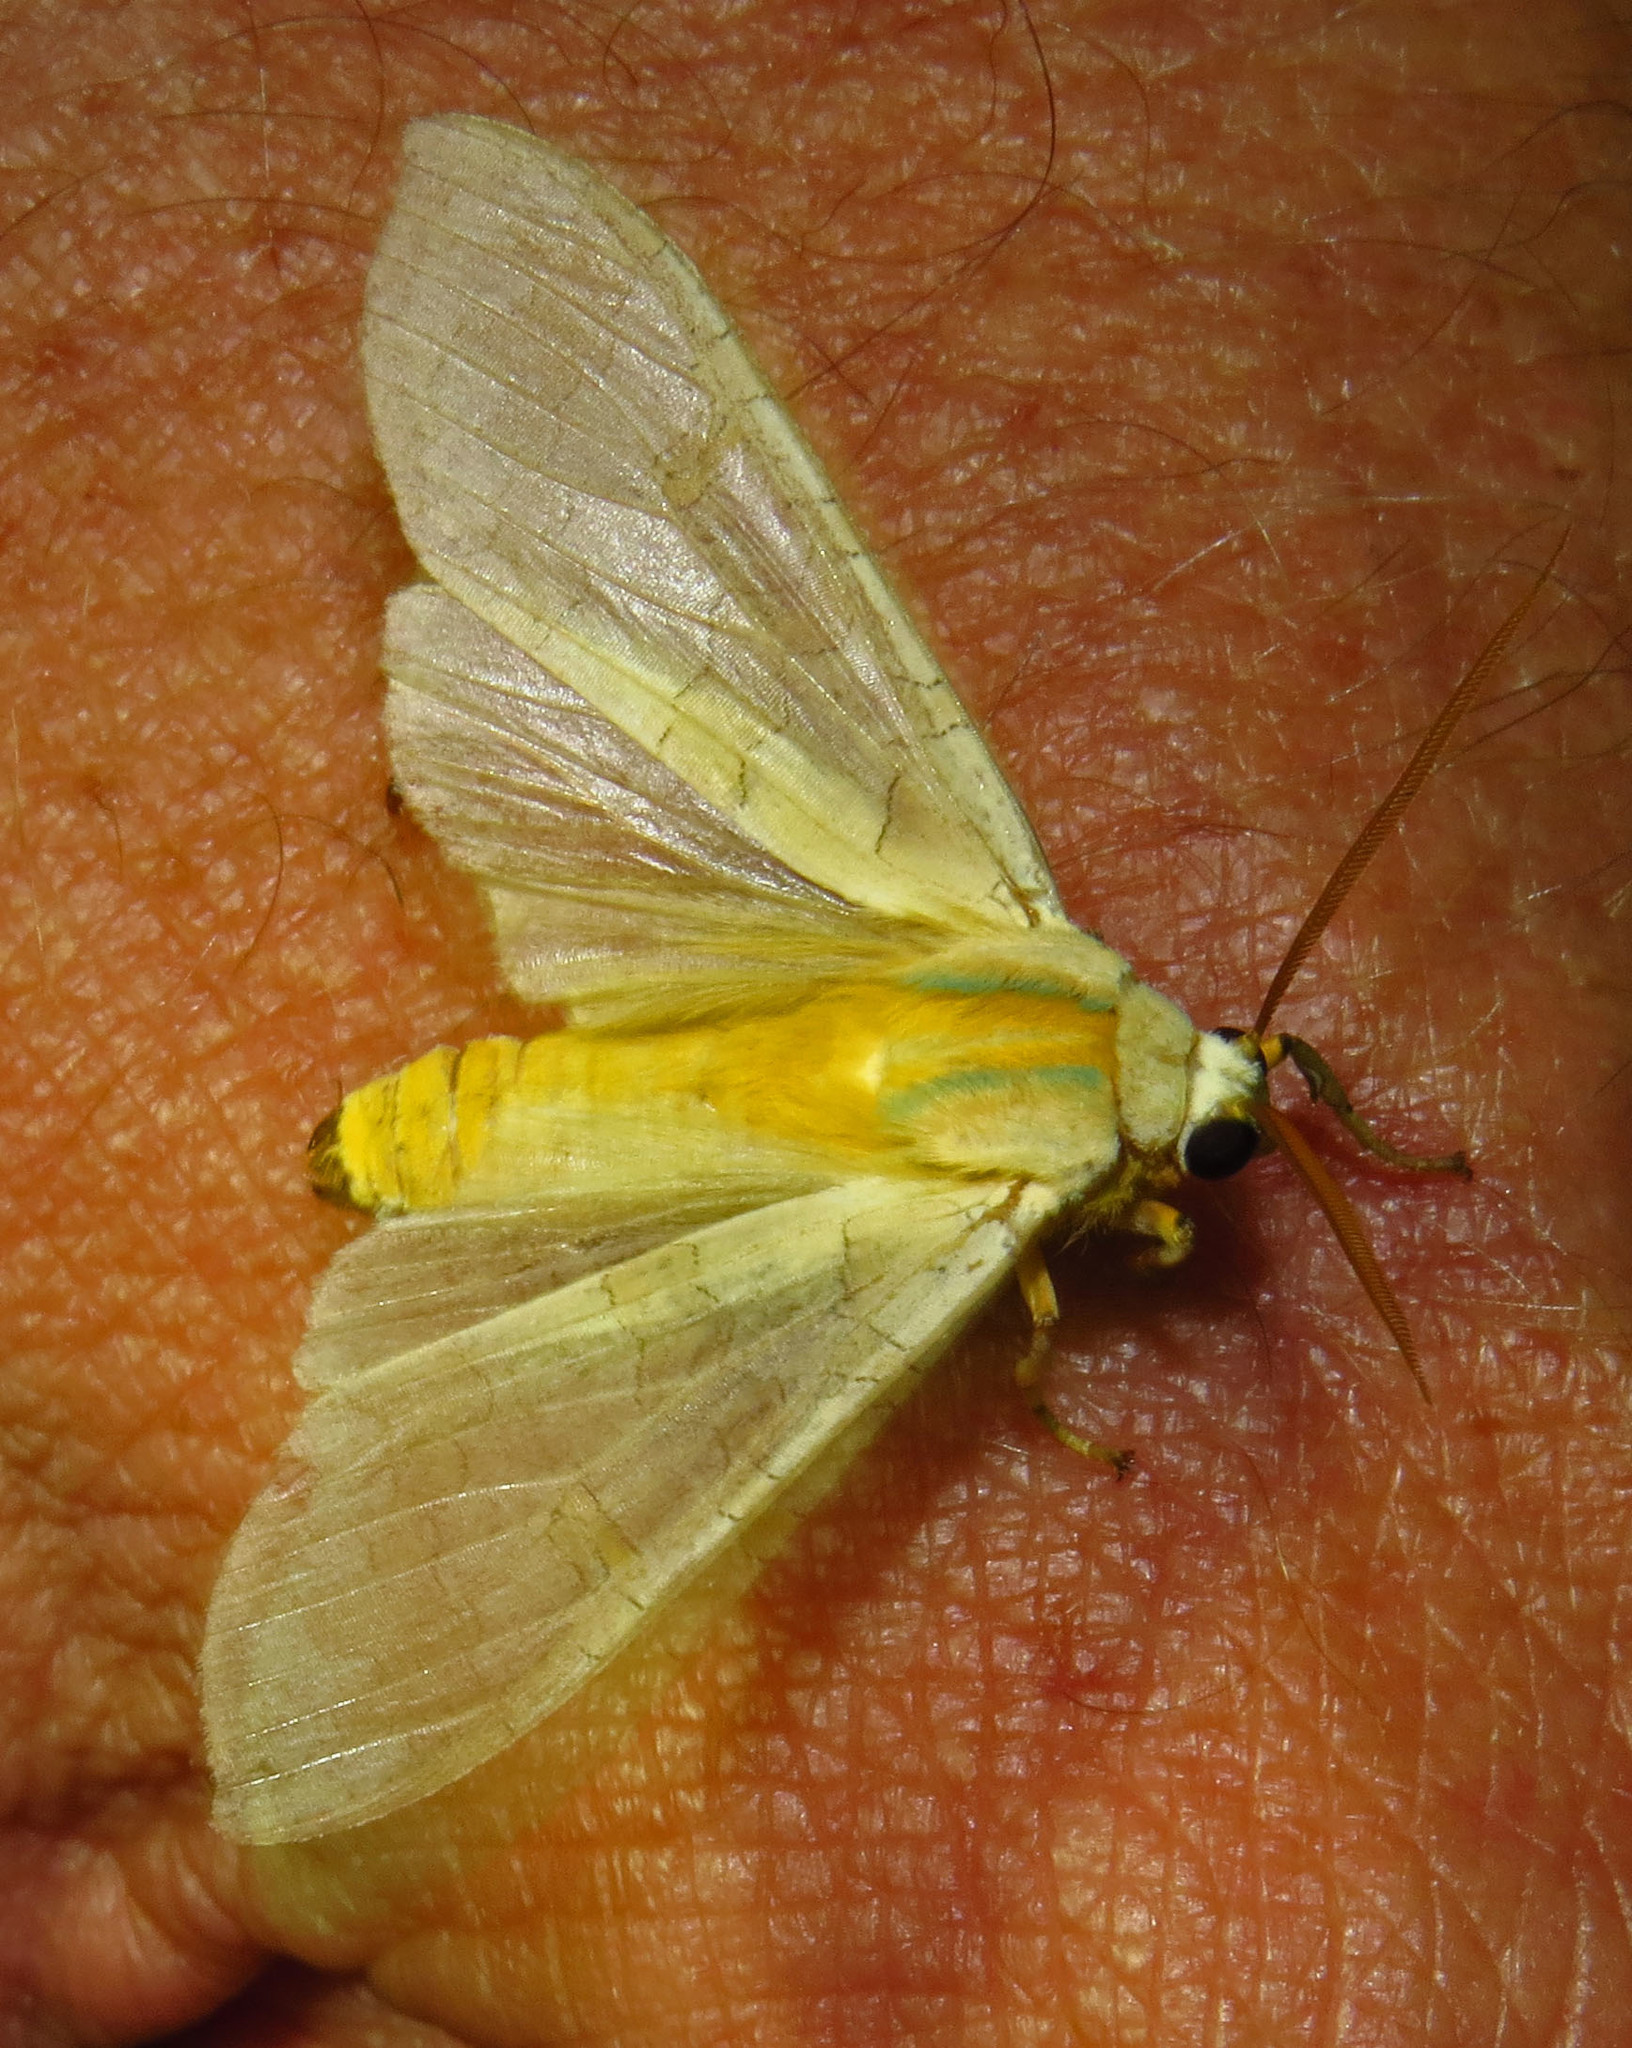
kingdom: Animalia
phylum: Arthropoda
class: Insecta
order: Lepidoptera
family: Erebidae
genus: Halysidota
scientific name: Halysidota
